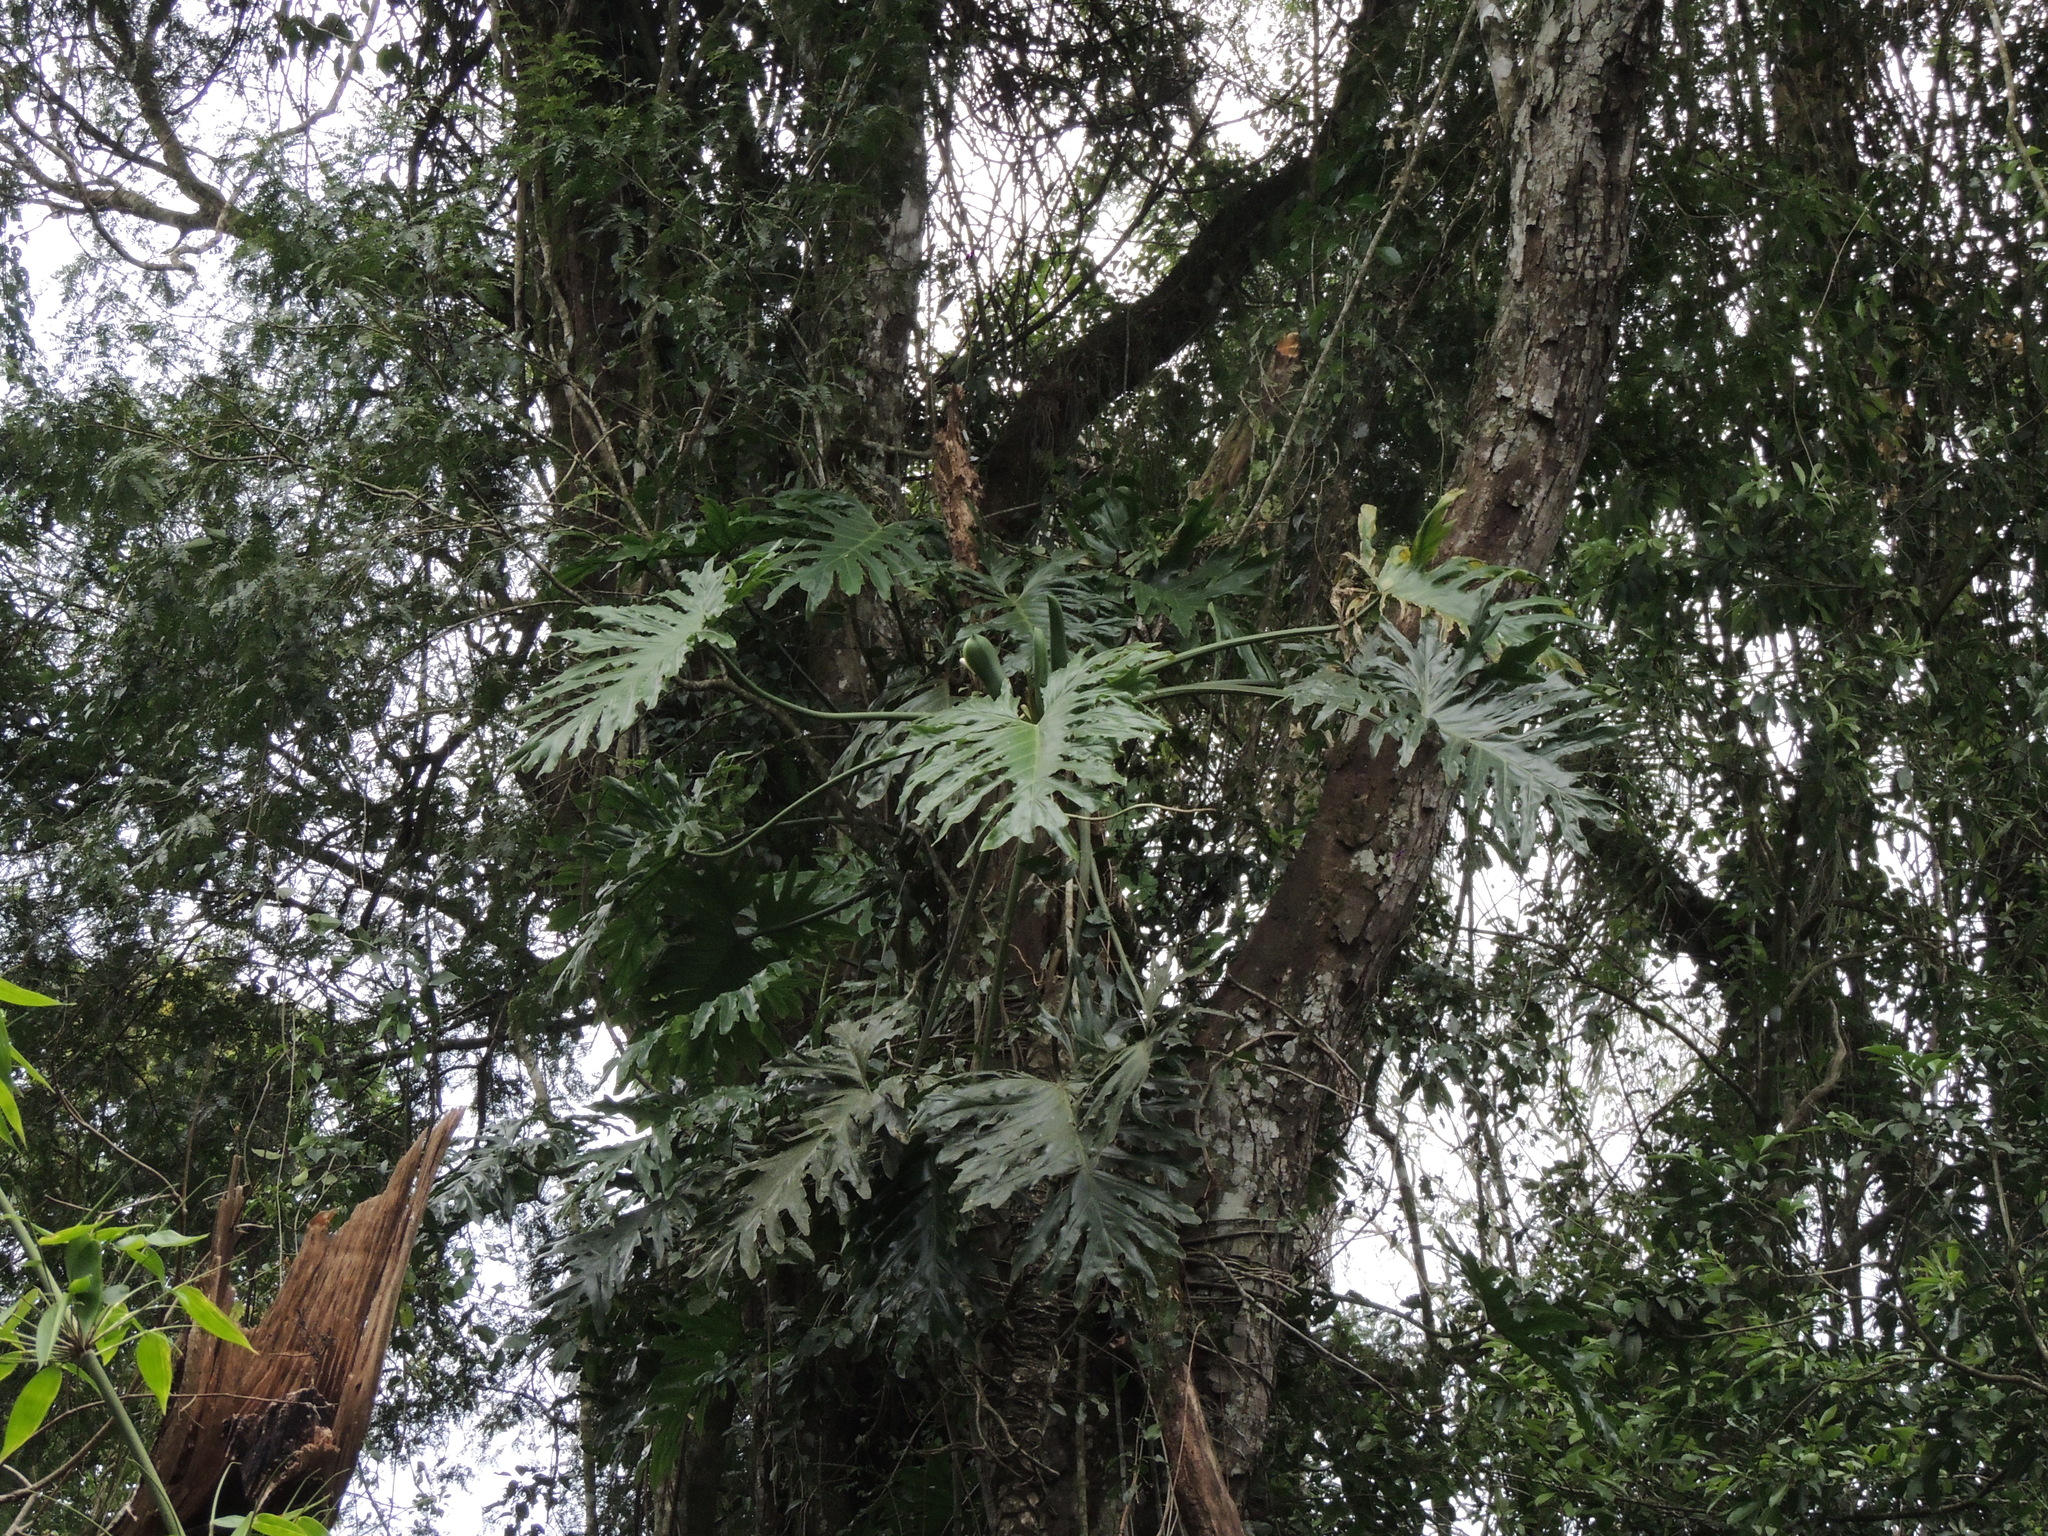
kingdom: Plantae
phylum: Tracheophyta
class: Liliopsida
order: Alismatales
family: Araceae
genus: Thaumatophyllum
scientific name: Thaumatophyllum bipinnatifidum
